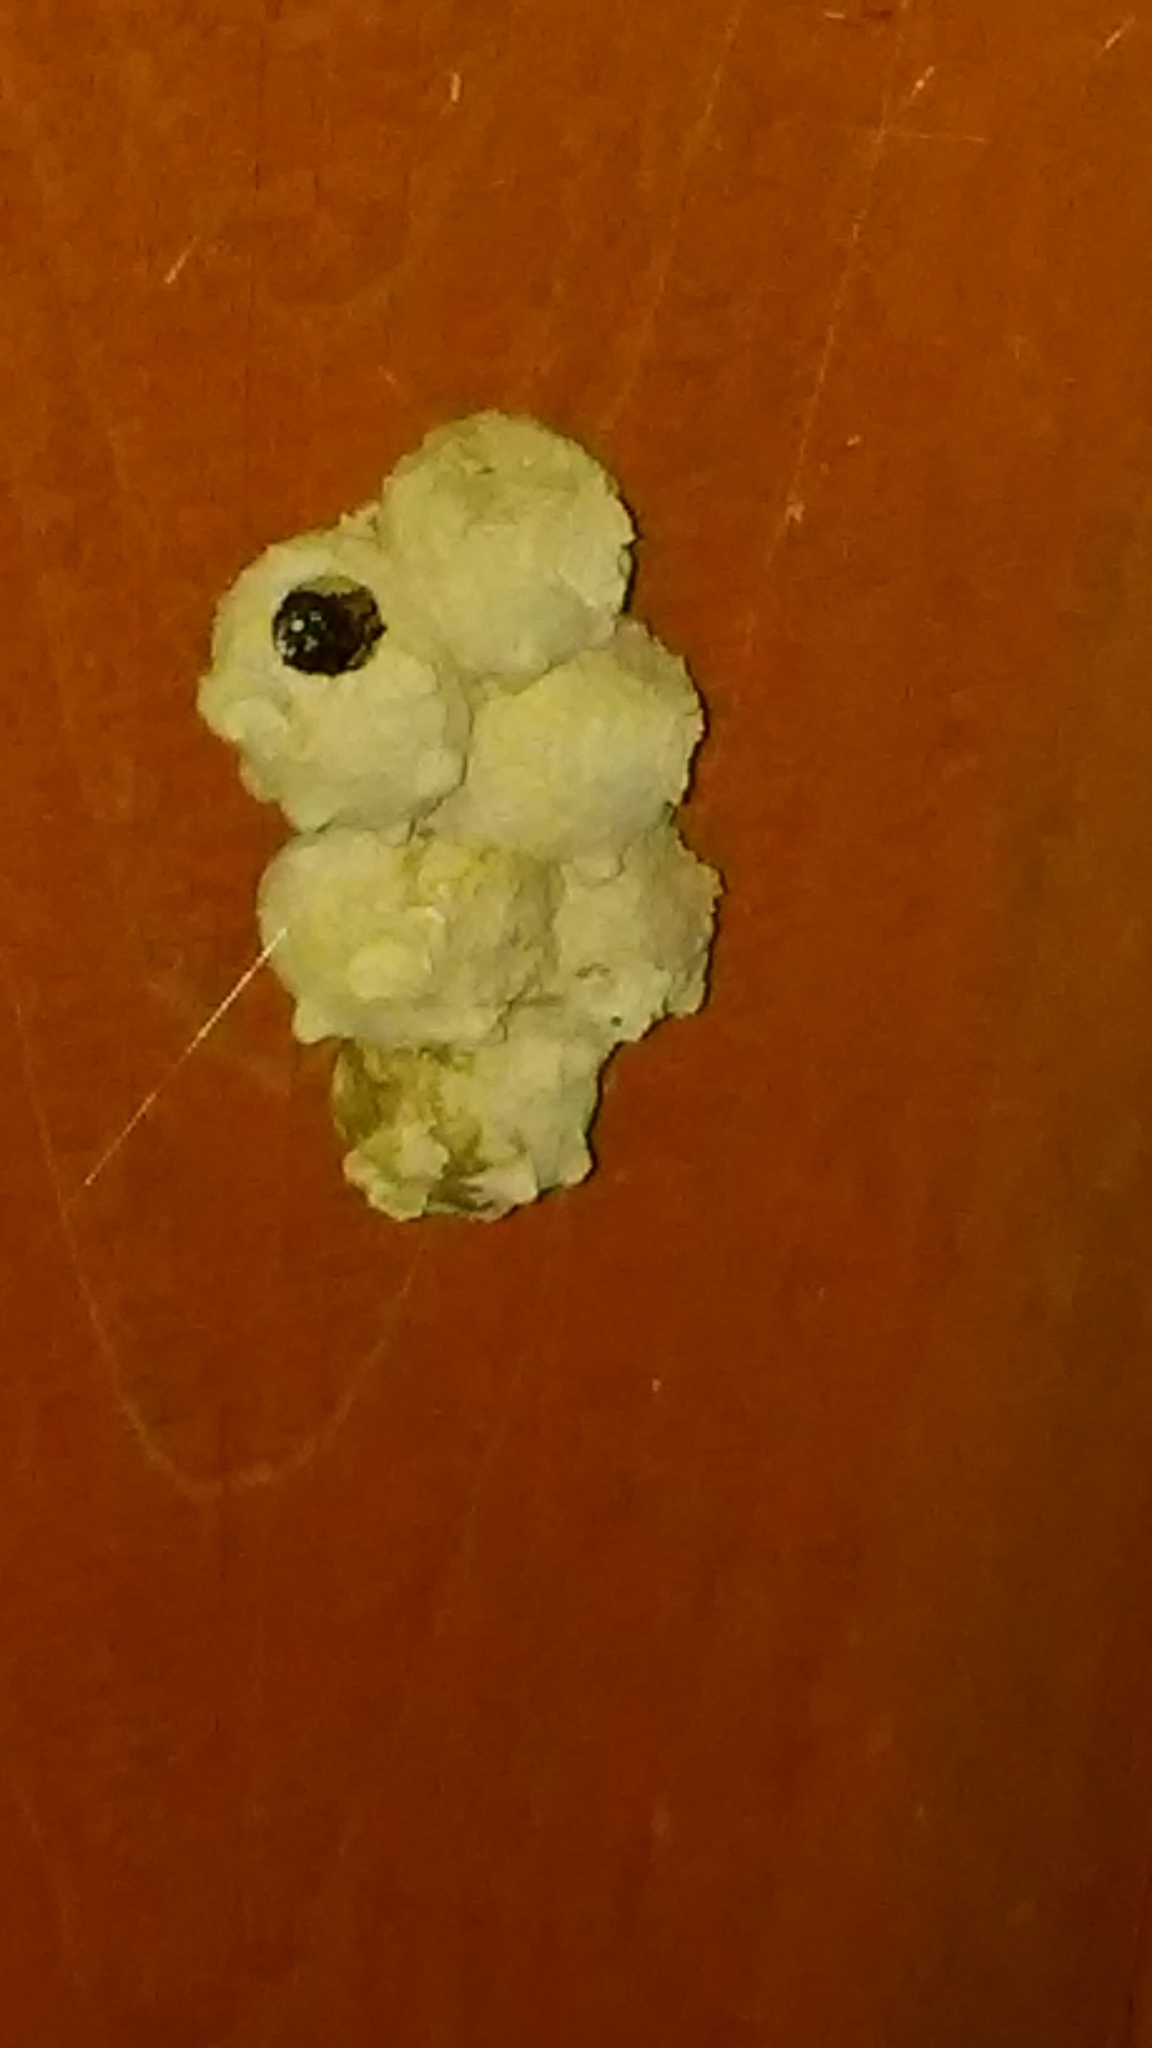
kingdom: Animalia
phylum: Arthropoda
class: Insecta
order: Hymenoptera
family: Vespidae
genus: Eumenes
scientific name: Eumenes
